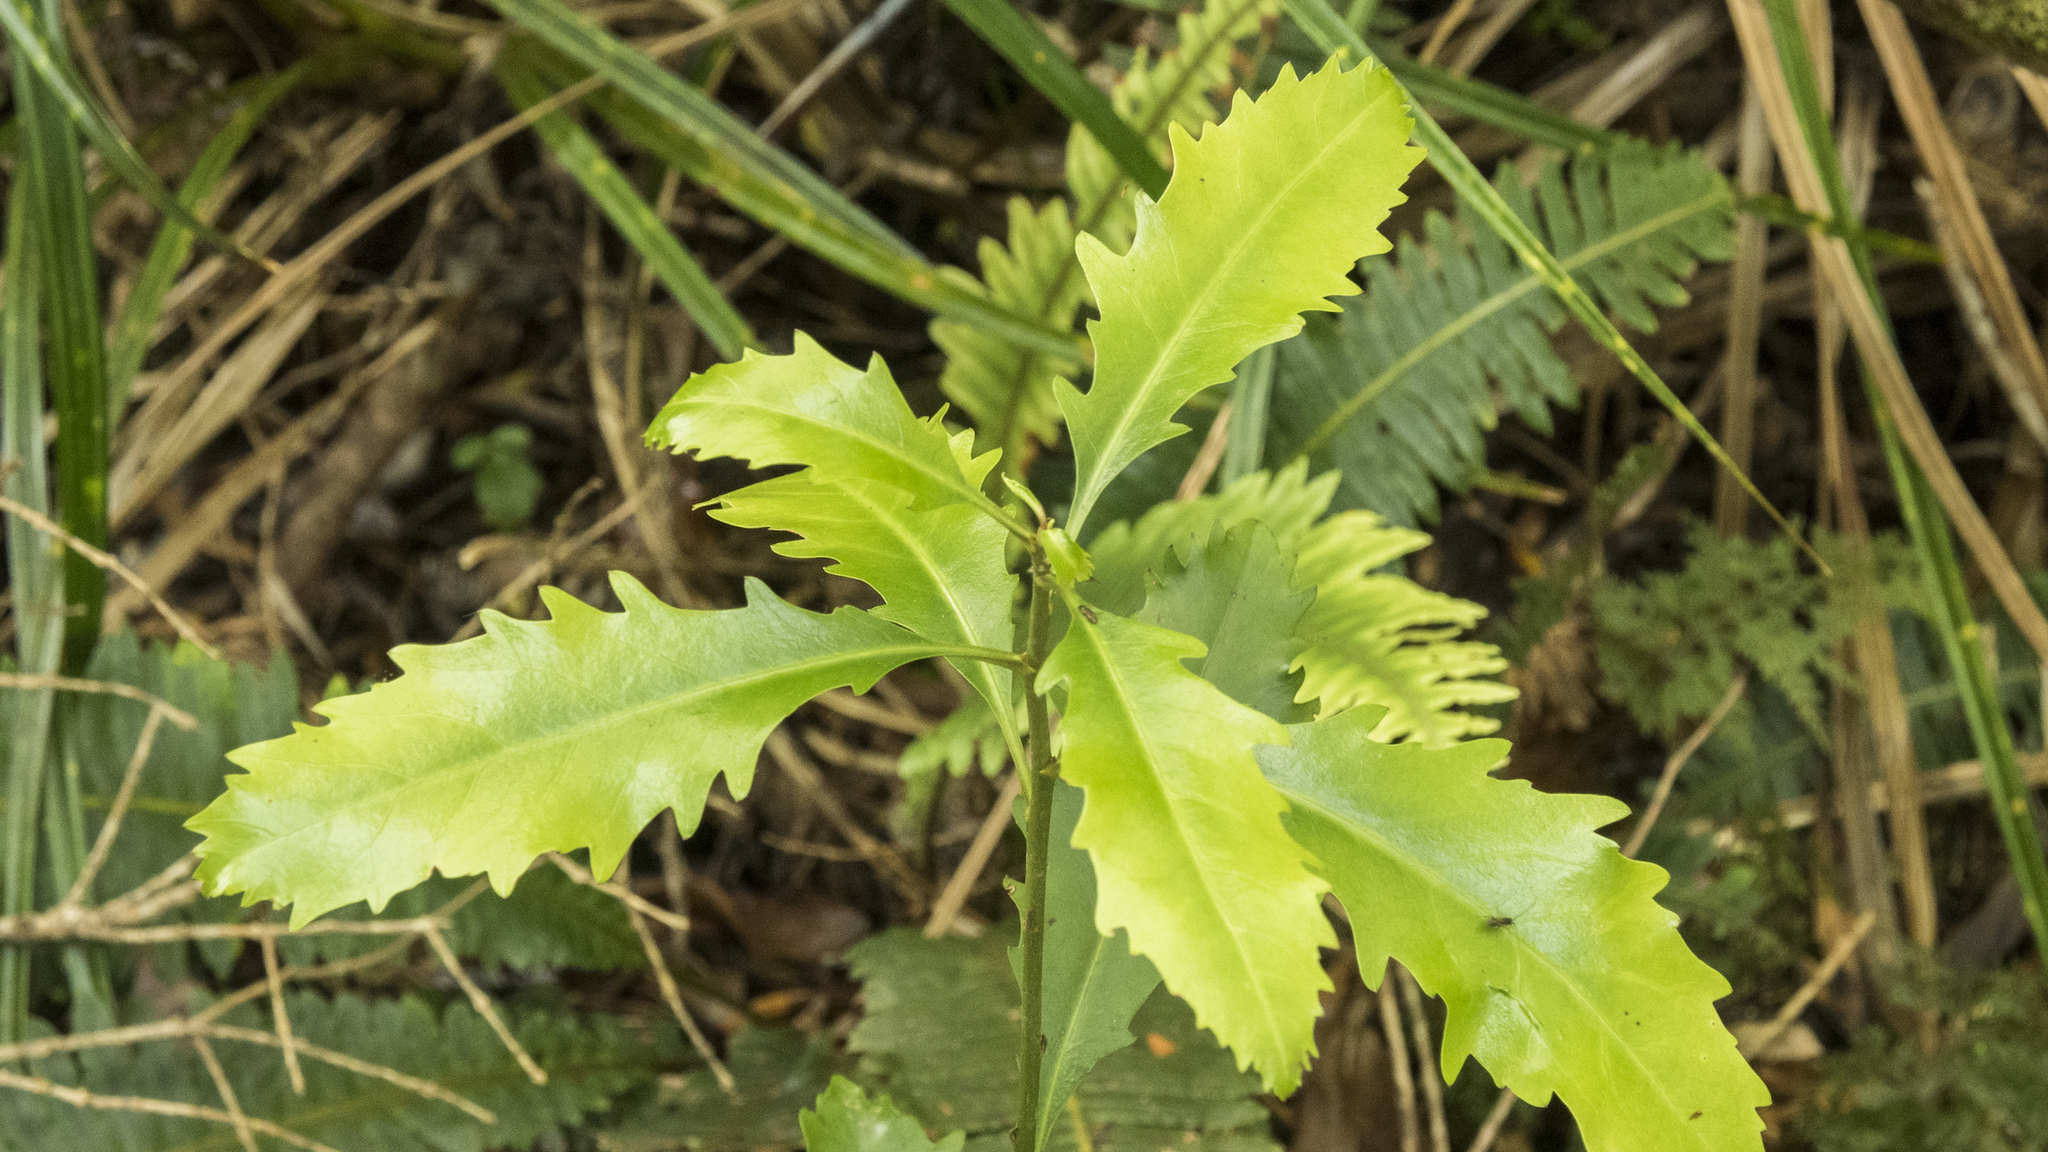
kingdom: Plantae
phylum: Tracheophyta
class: Magnoliopsida
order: Asterales
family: Alseuosmiaceae
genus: Alseuosmia
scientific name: Alseuosmia quercifolia
